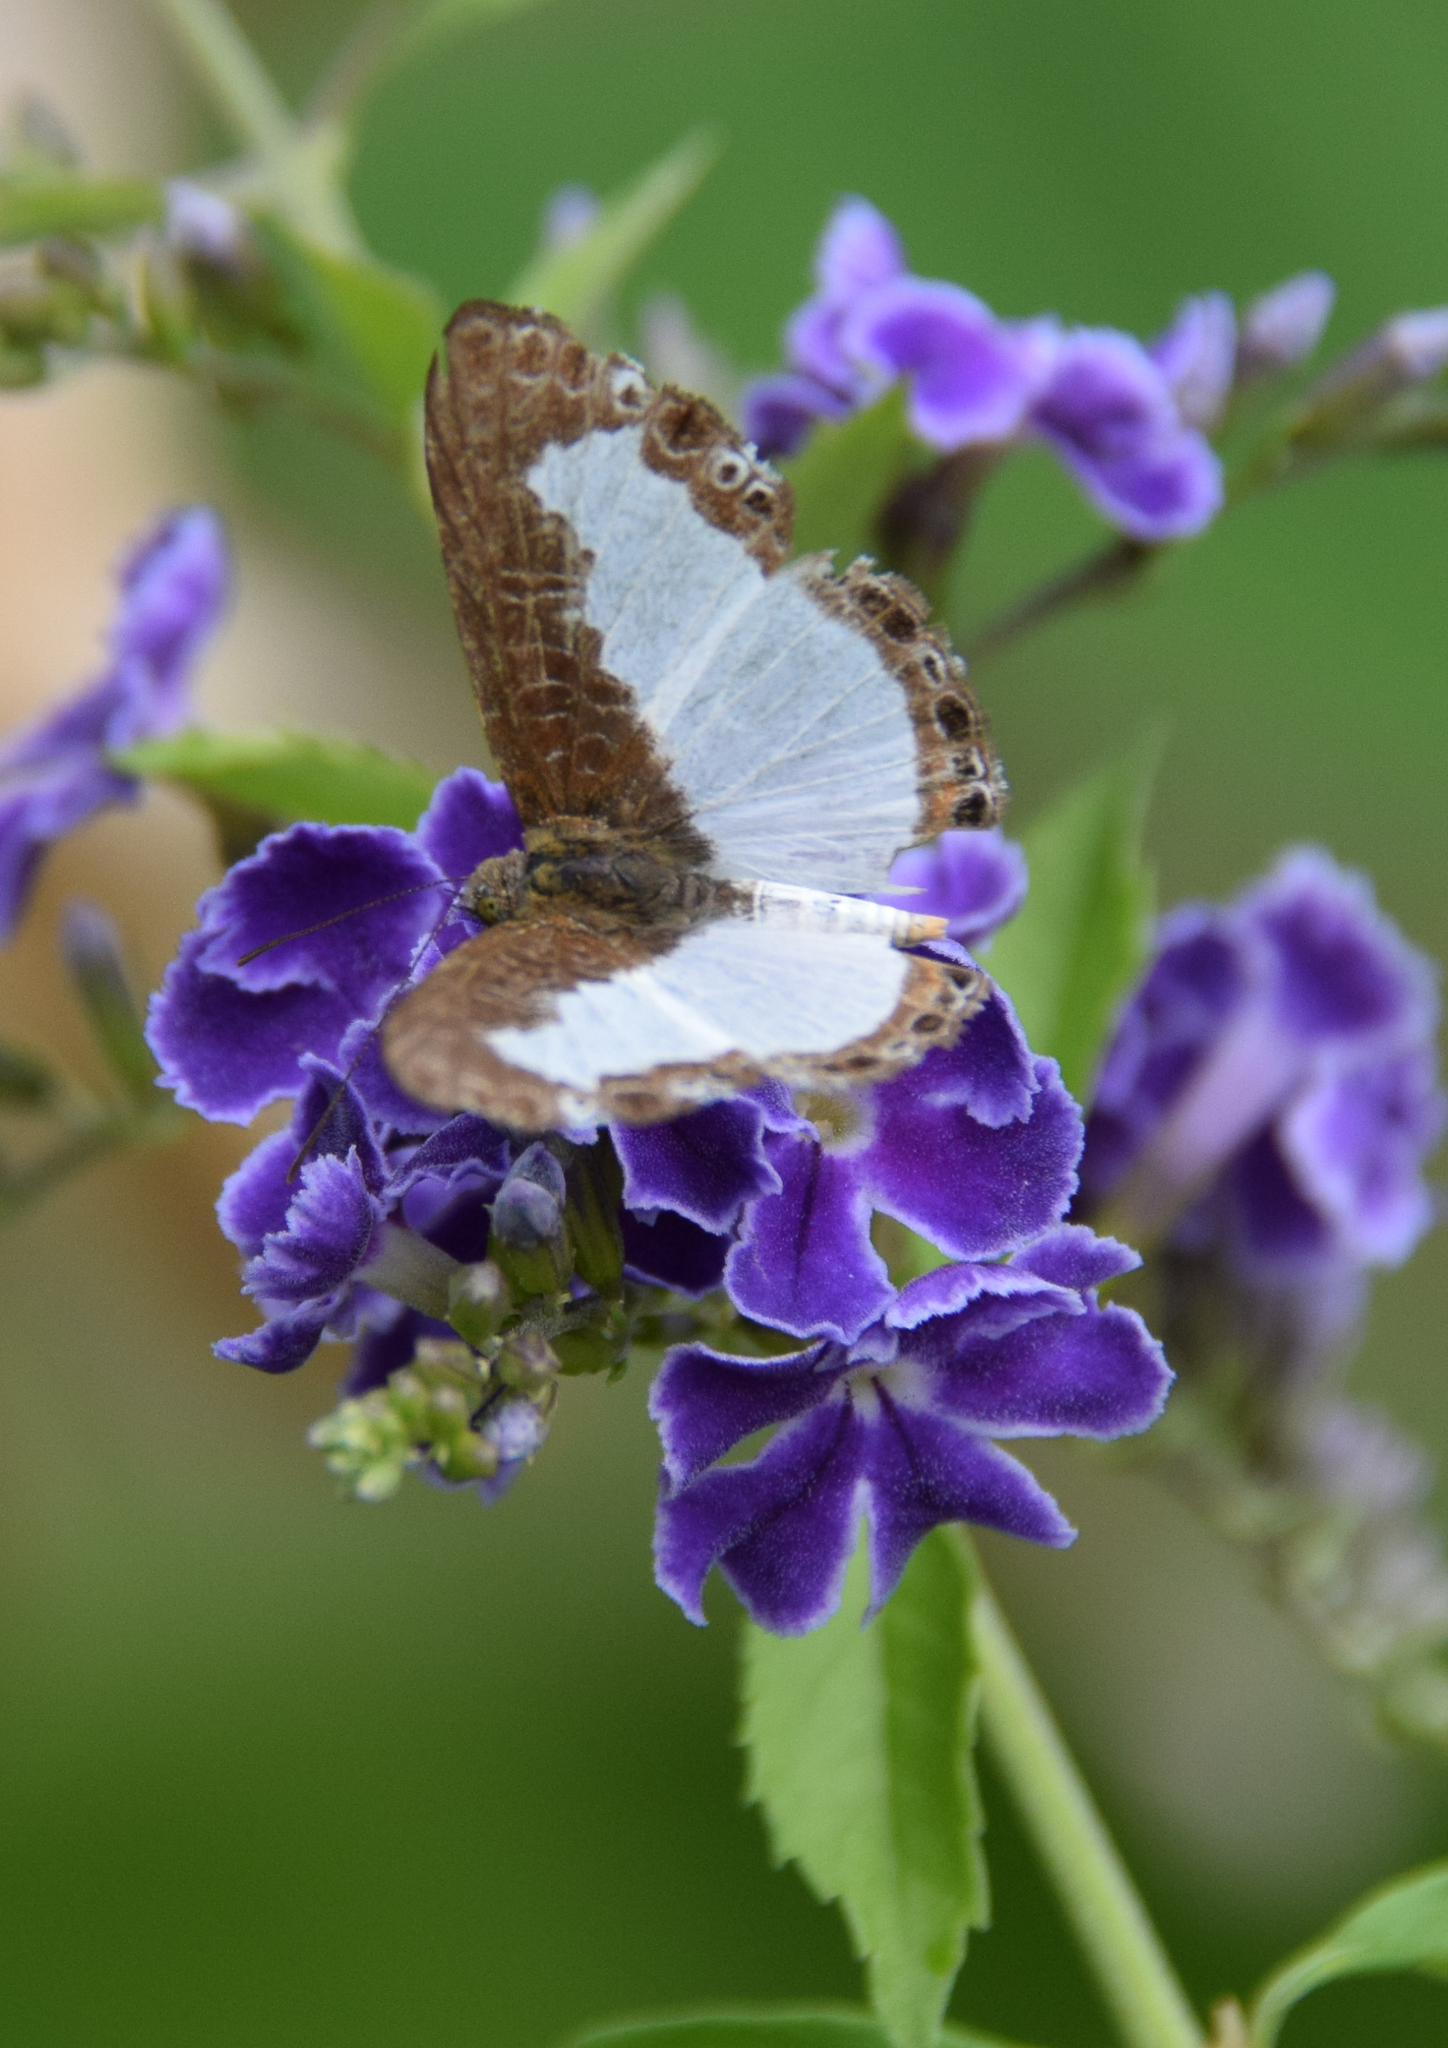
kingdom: Animalia
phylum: Arthropoda
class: Insecta
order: Lepidoptera
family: Riodinidae
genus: Juditha
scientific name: Juditha lamis
